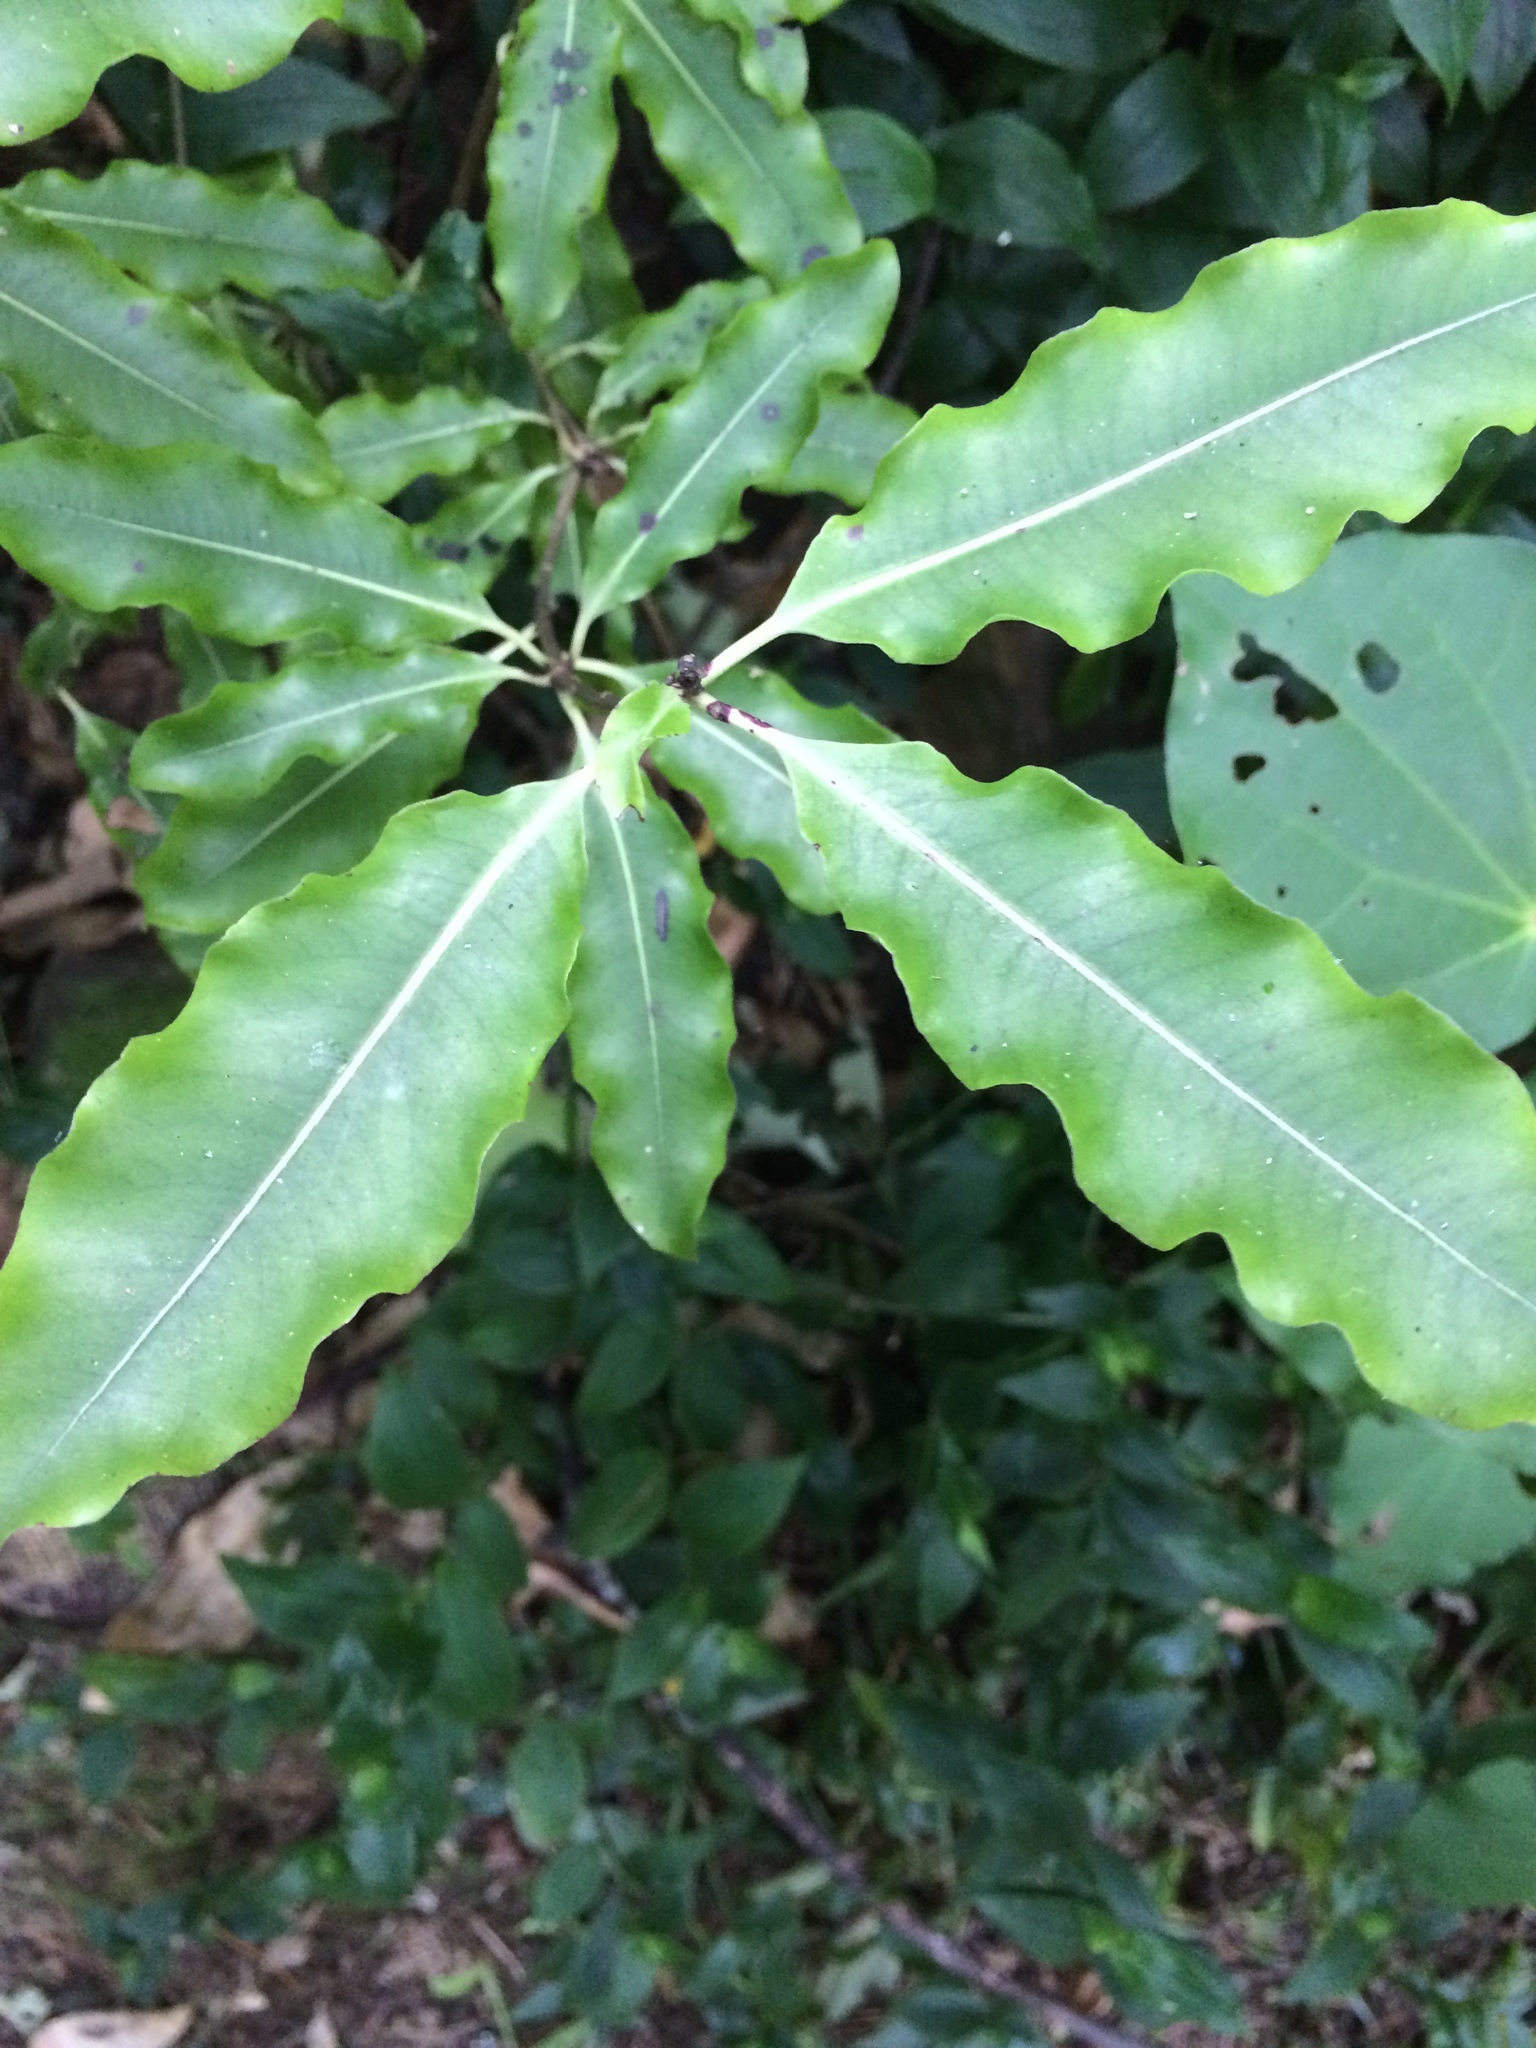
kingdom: Plantae
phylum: Tracheophyta
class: Magnoliopsida
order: Apiales
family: Pittosporaceae
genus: Pittosporum
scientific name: Pittosporum eugenioides
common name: Lemonwood
